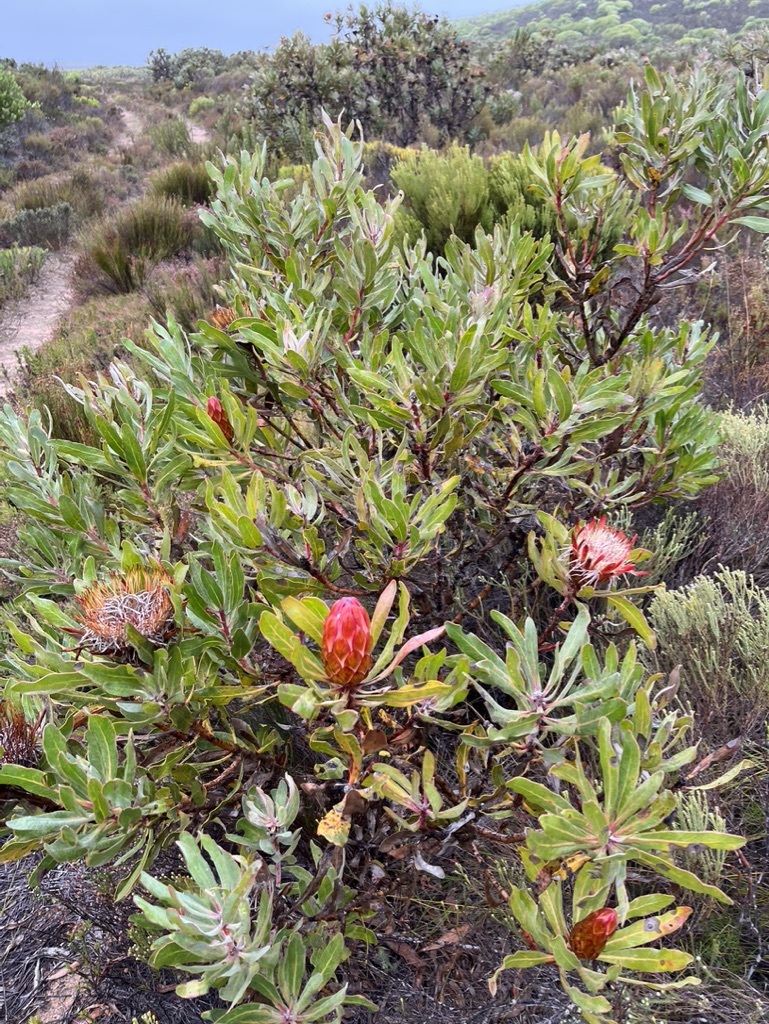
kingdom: Plantae
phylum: Tracheophyta
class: Magnoliopsida
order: Proteales
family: Proteaceae
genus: Protea
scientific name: Protea susannae
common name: Foetid-leaf sugarbush
